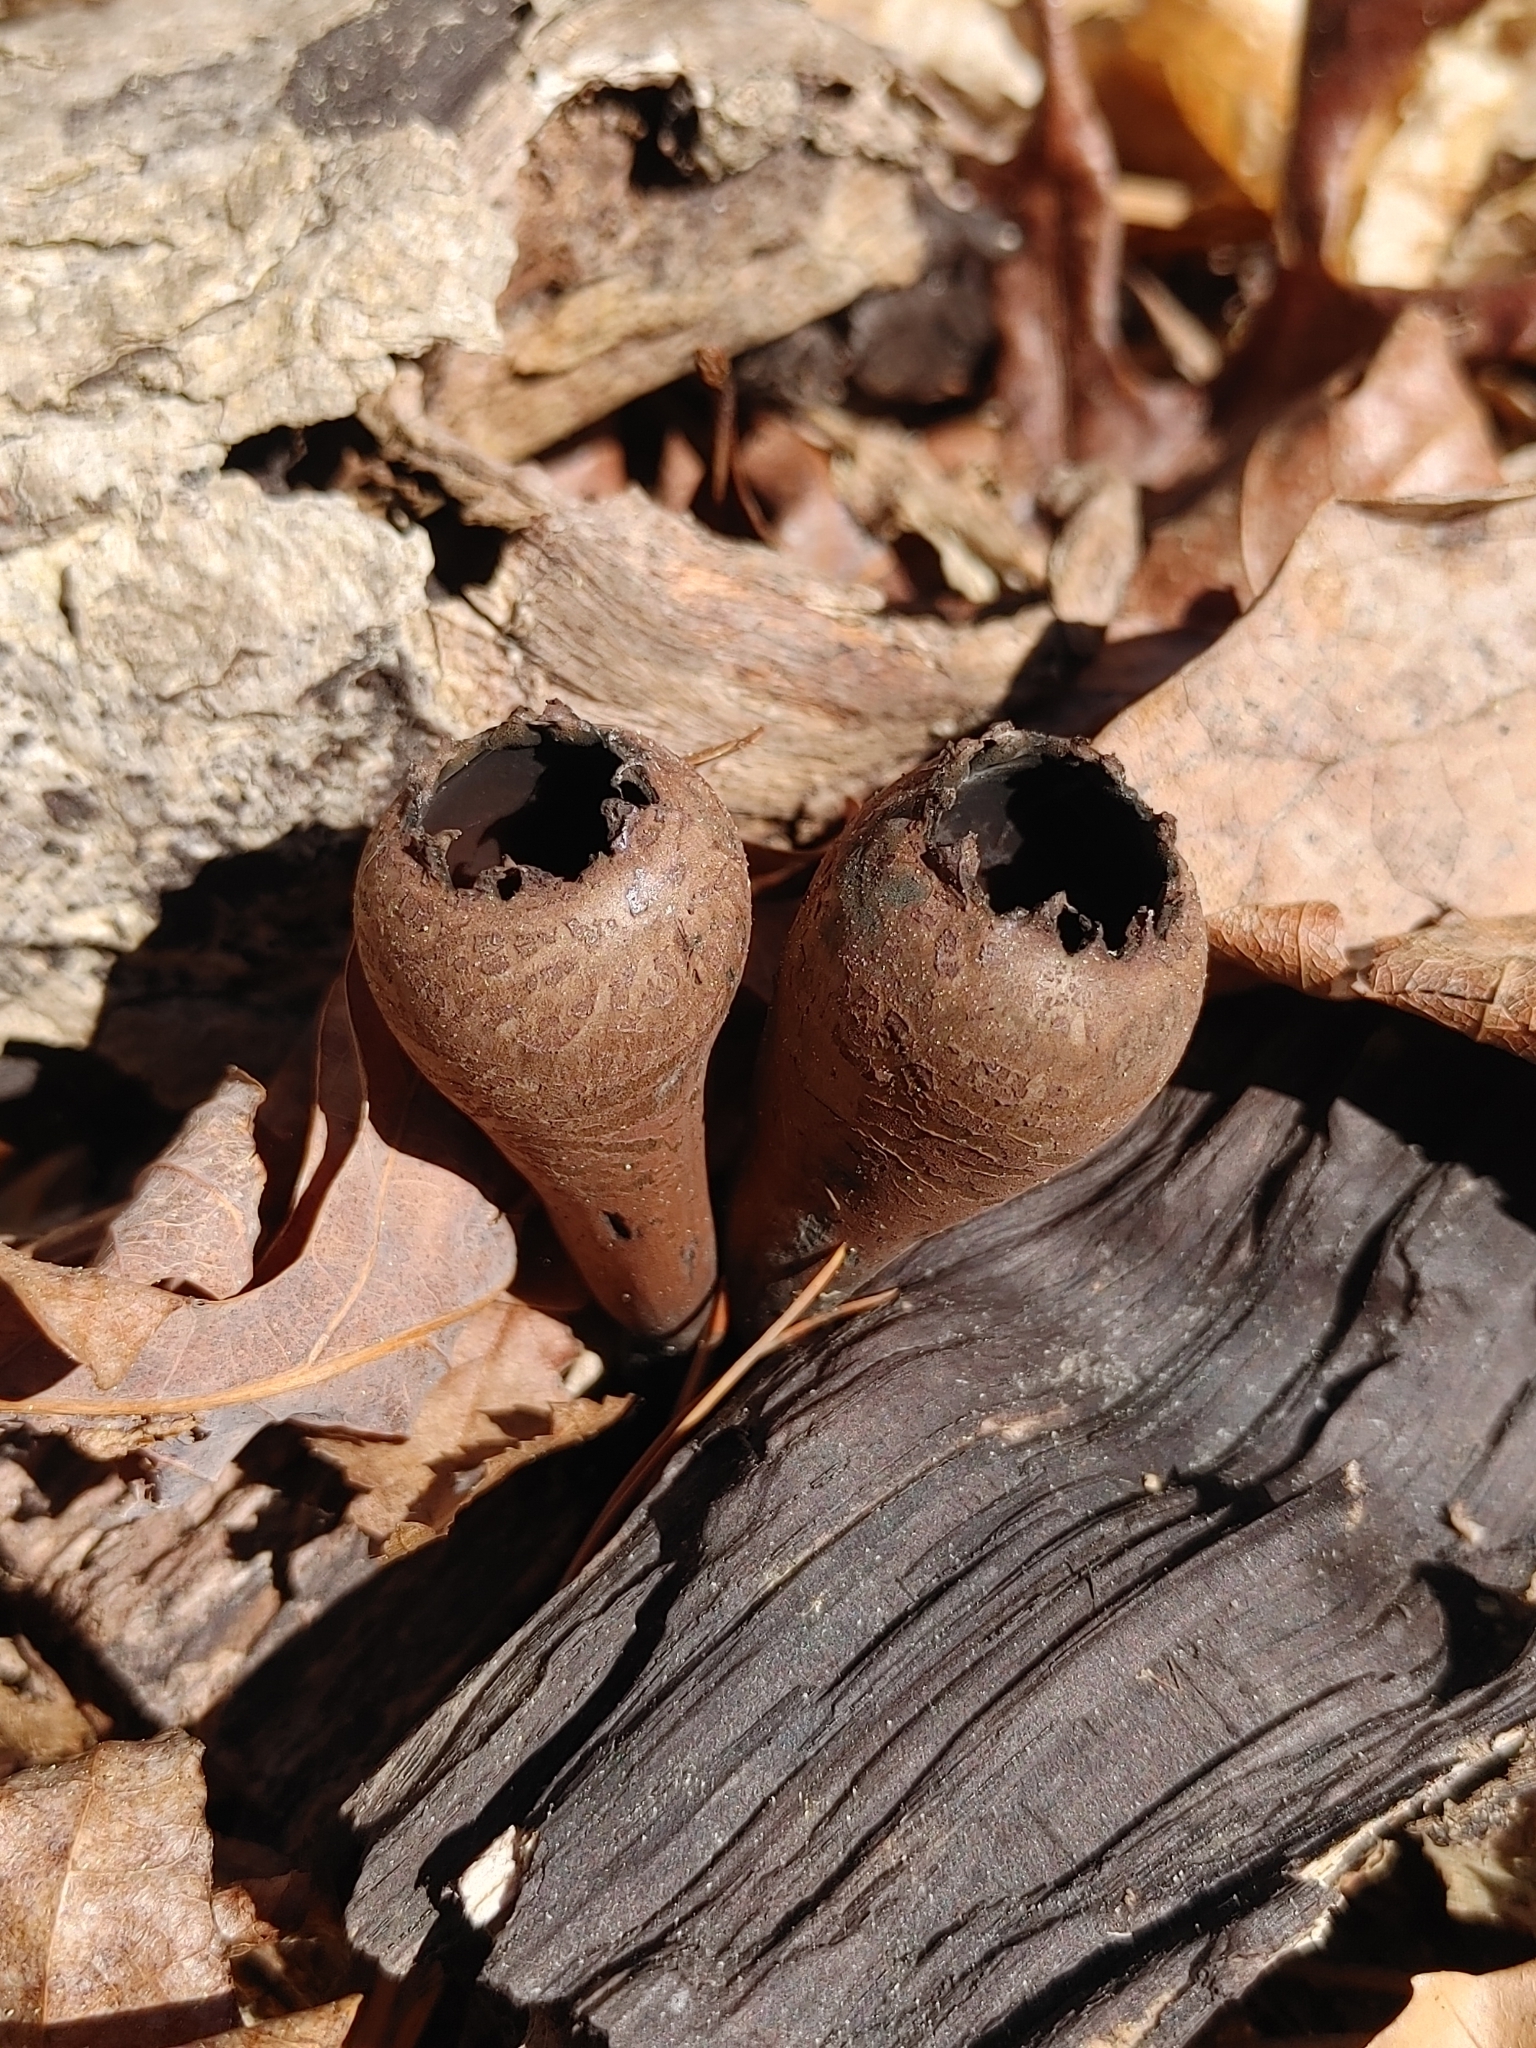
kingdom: Fungi
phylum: Ascomycota
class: Pezizomycetes
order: Pezizales
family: Sarcosomataceae
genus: Urnula
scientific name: Urnula craterium
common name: Devil's urn
